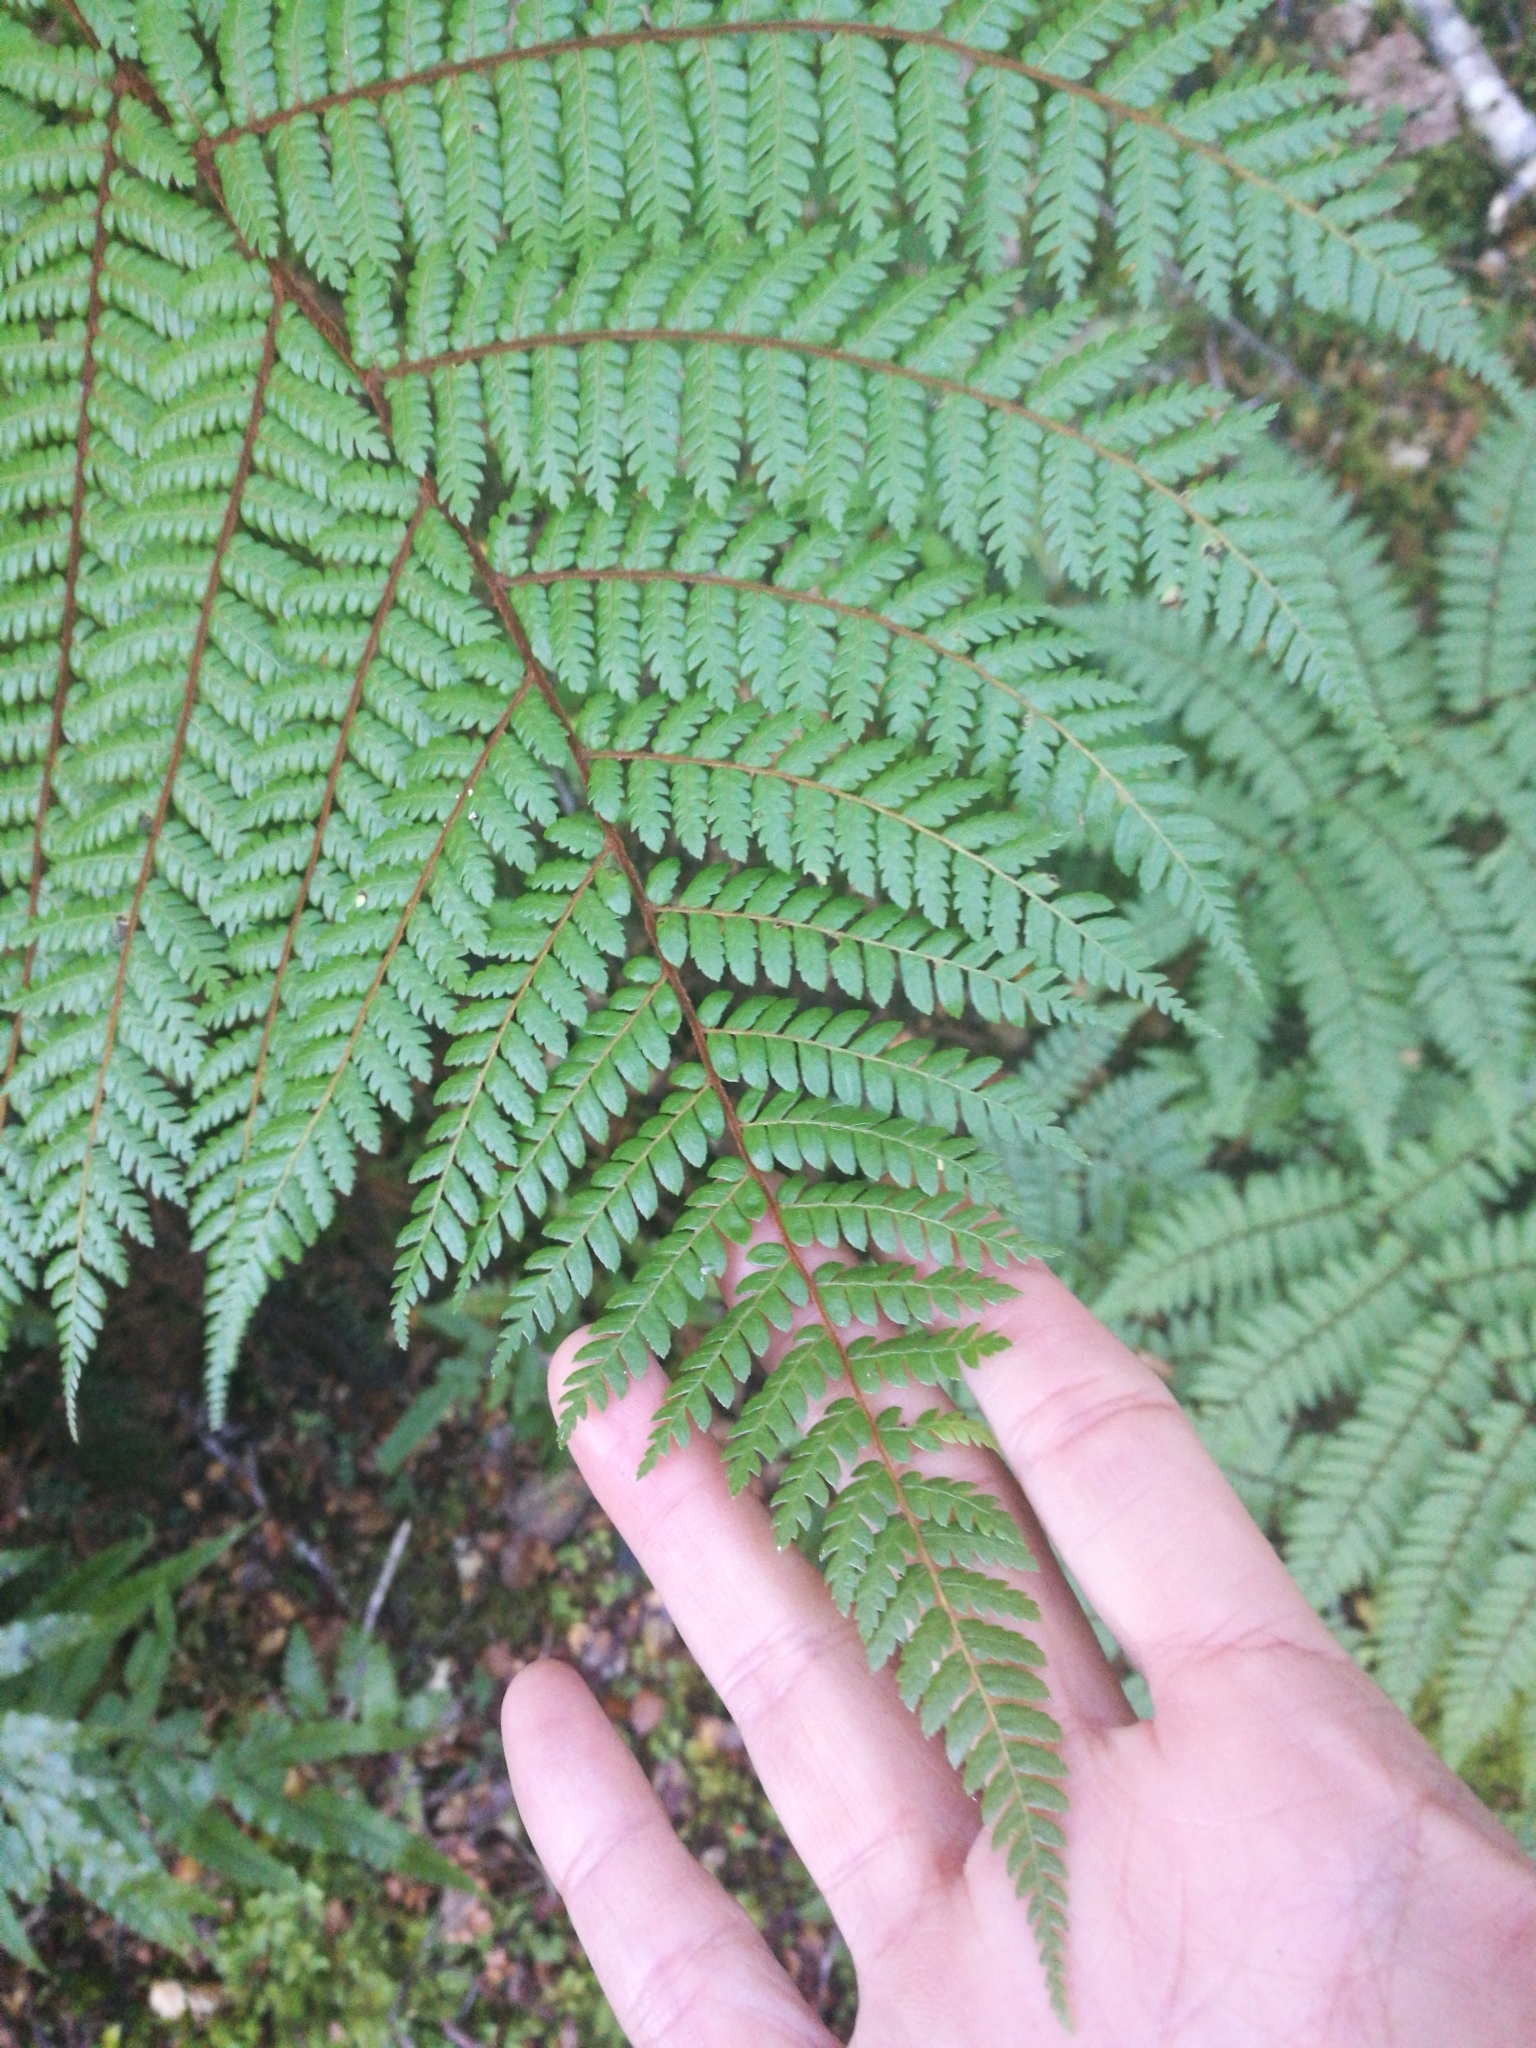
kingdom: Plantae
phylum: Tracheophyta
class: Polypodiopsida
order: Cyatheales
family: Cyatheaceae
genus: Alsophila
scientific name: Alsophila colensoi
